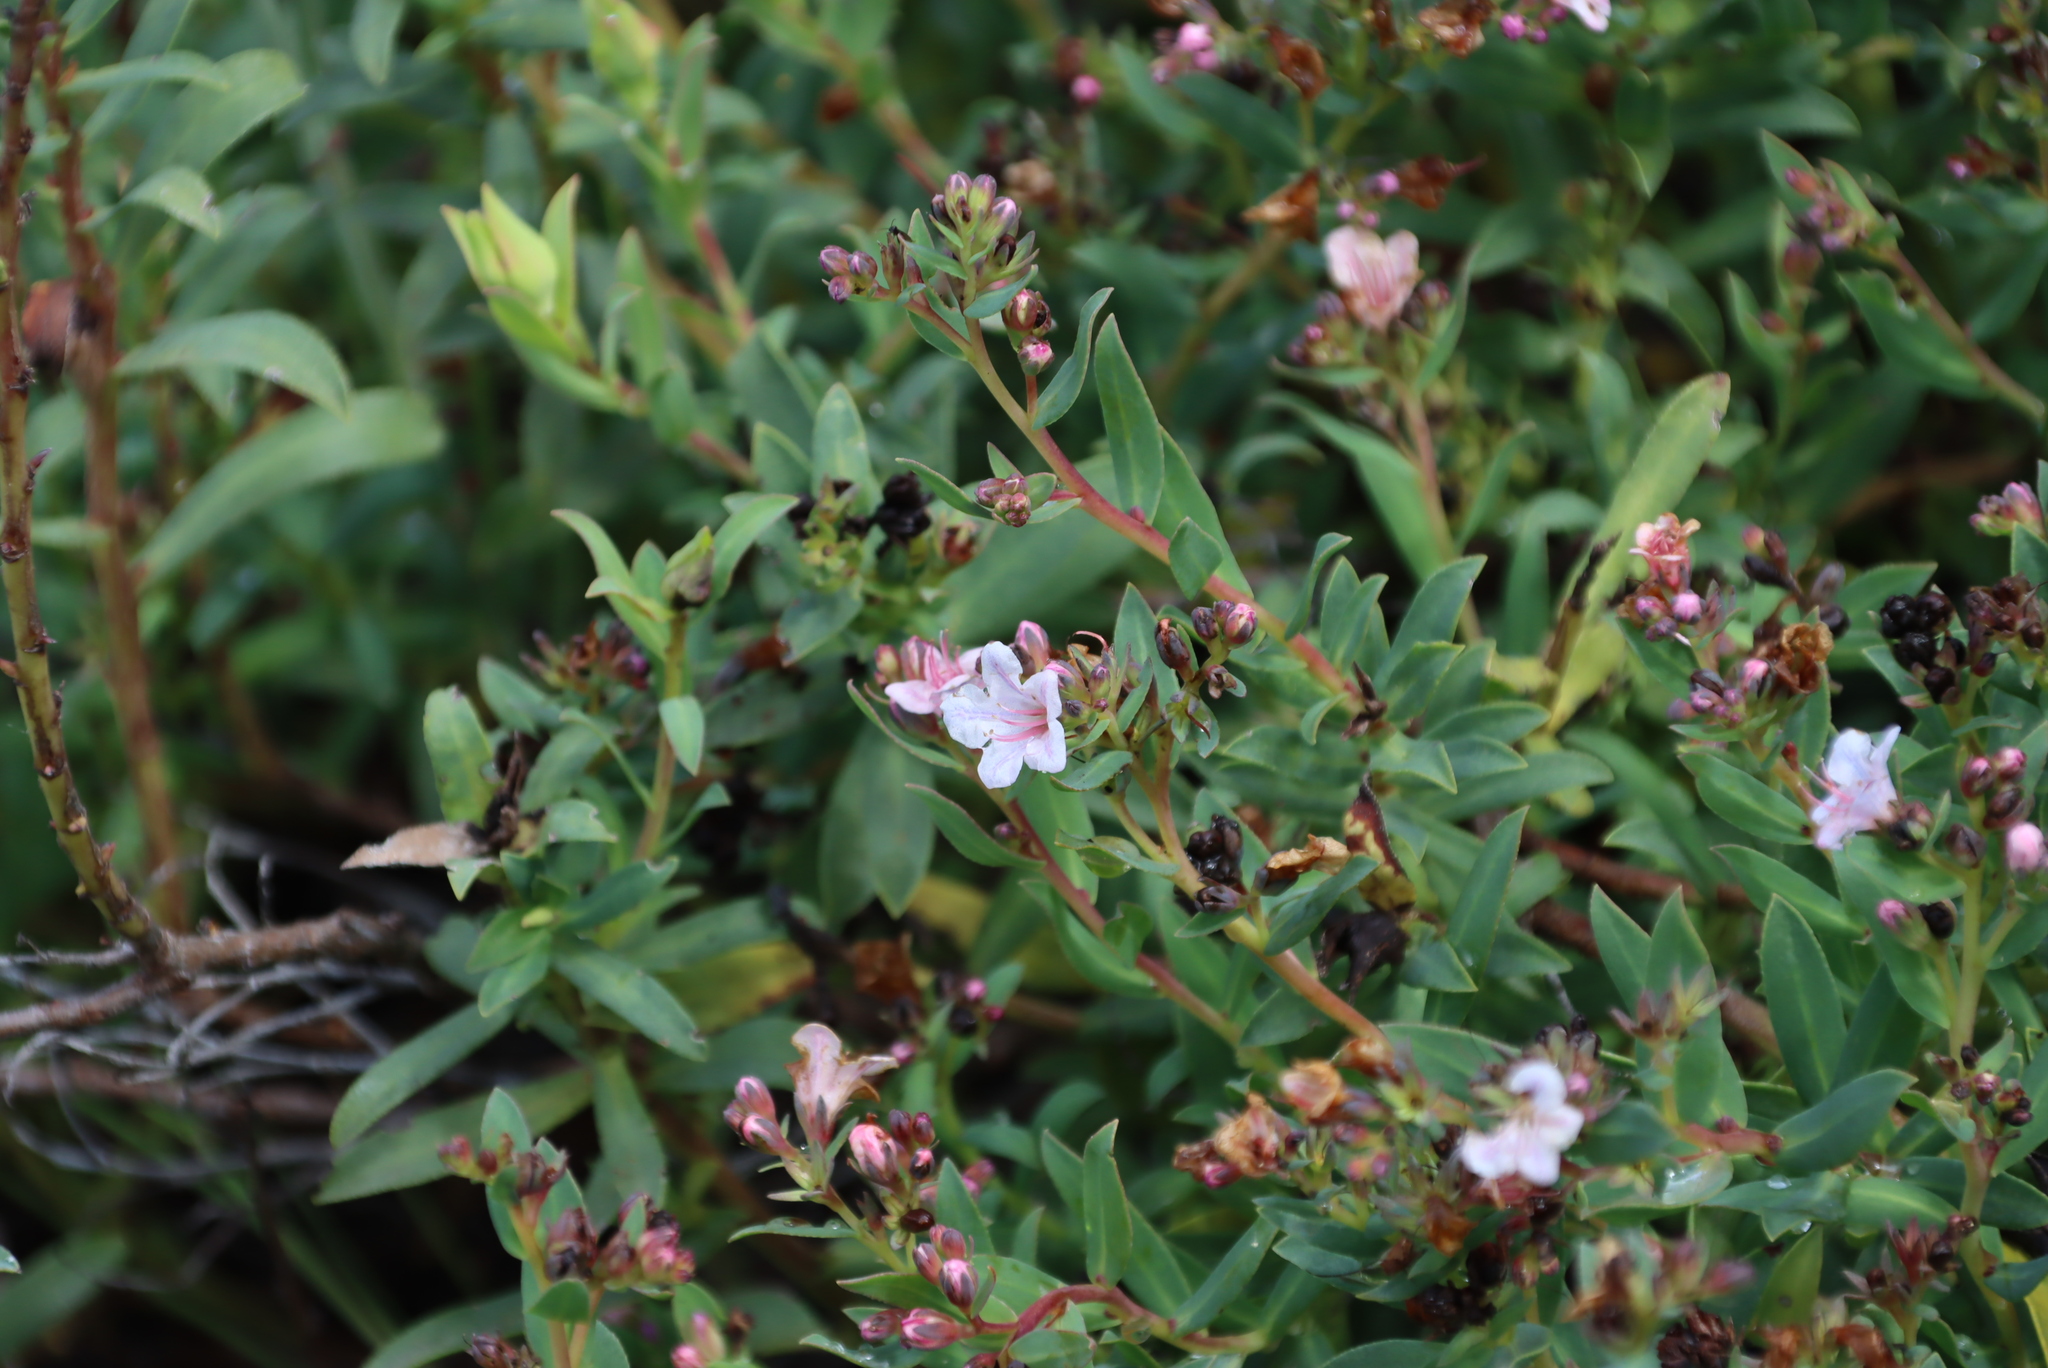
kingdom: Plantae
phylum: Tracheophyta
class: Magnoliopsida
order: Boraginales
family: Boraginaceae
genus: Lobostemon
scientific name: Lobostemon glaucophyllus
